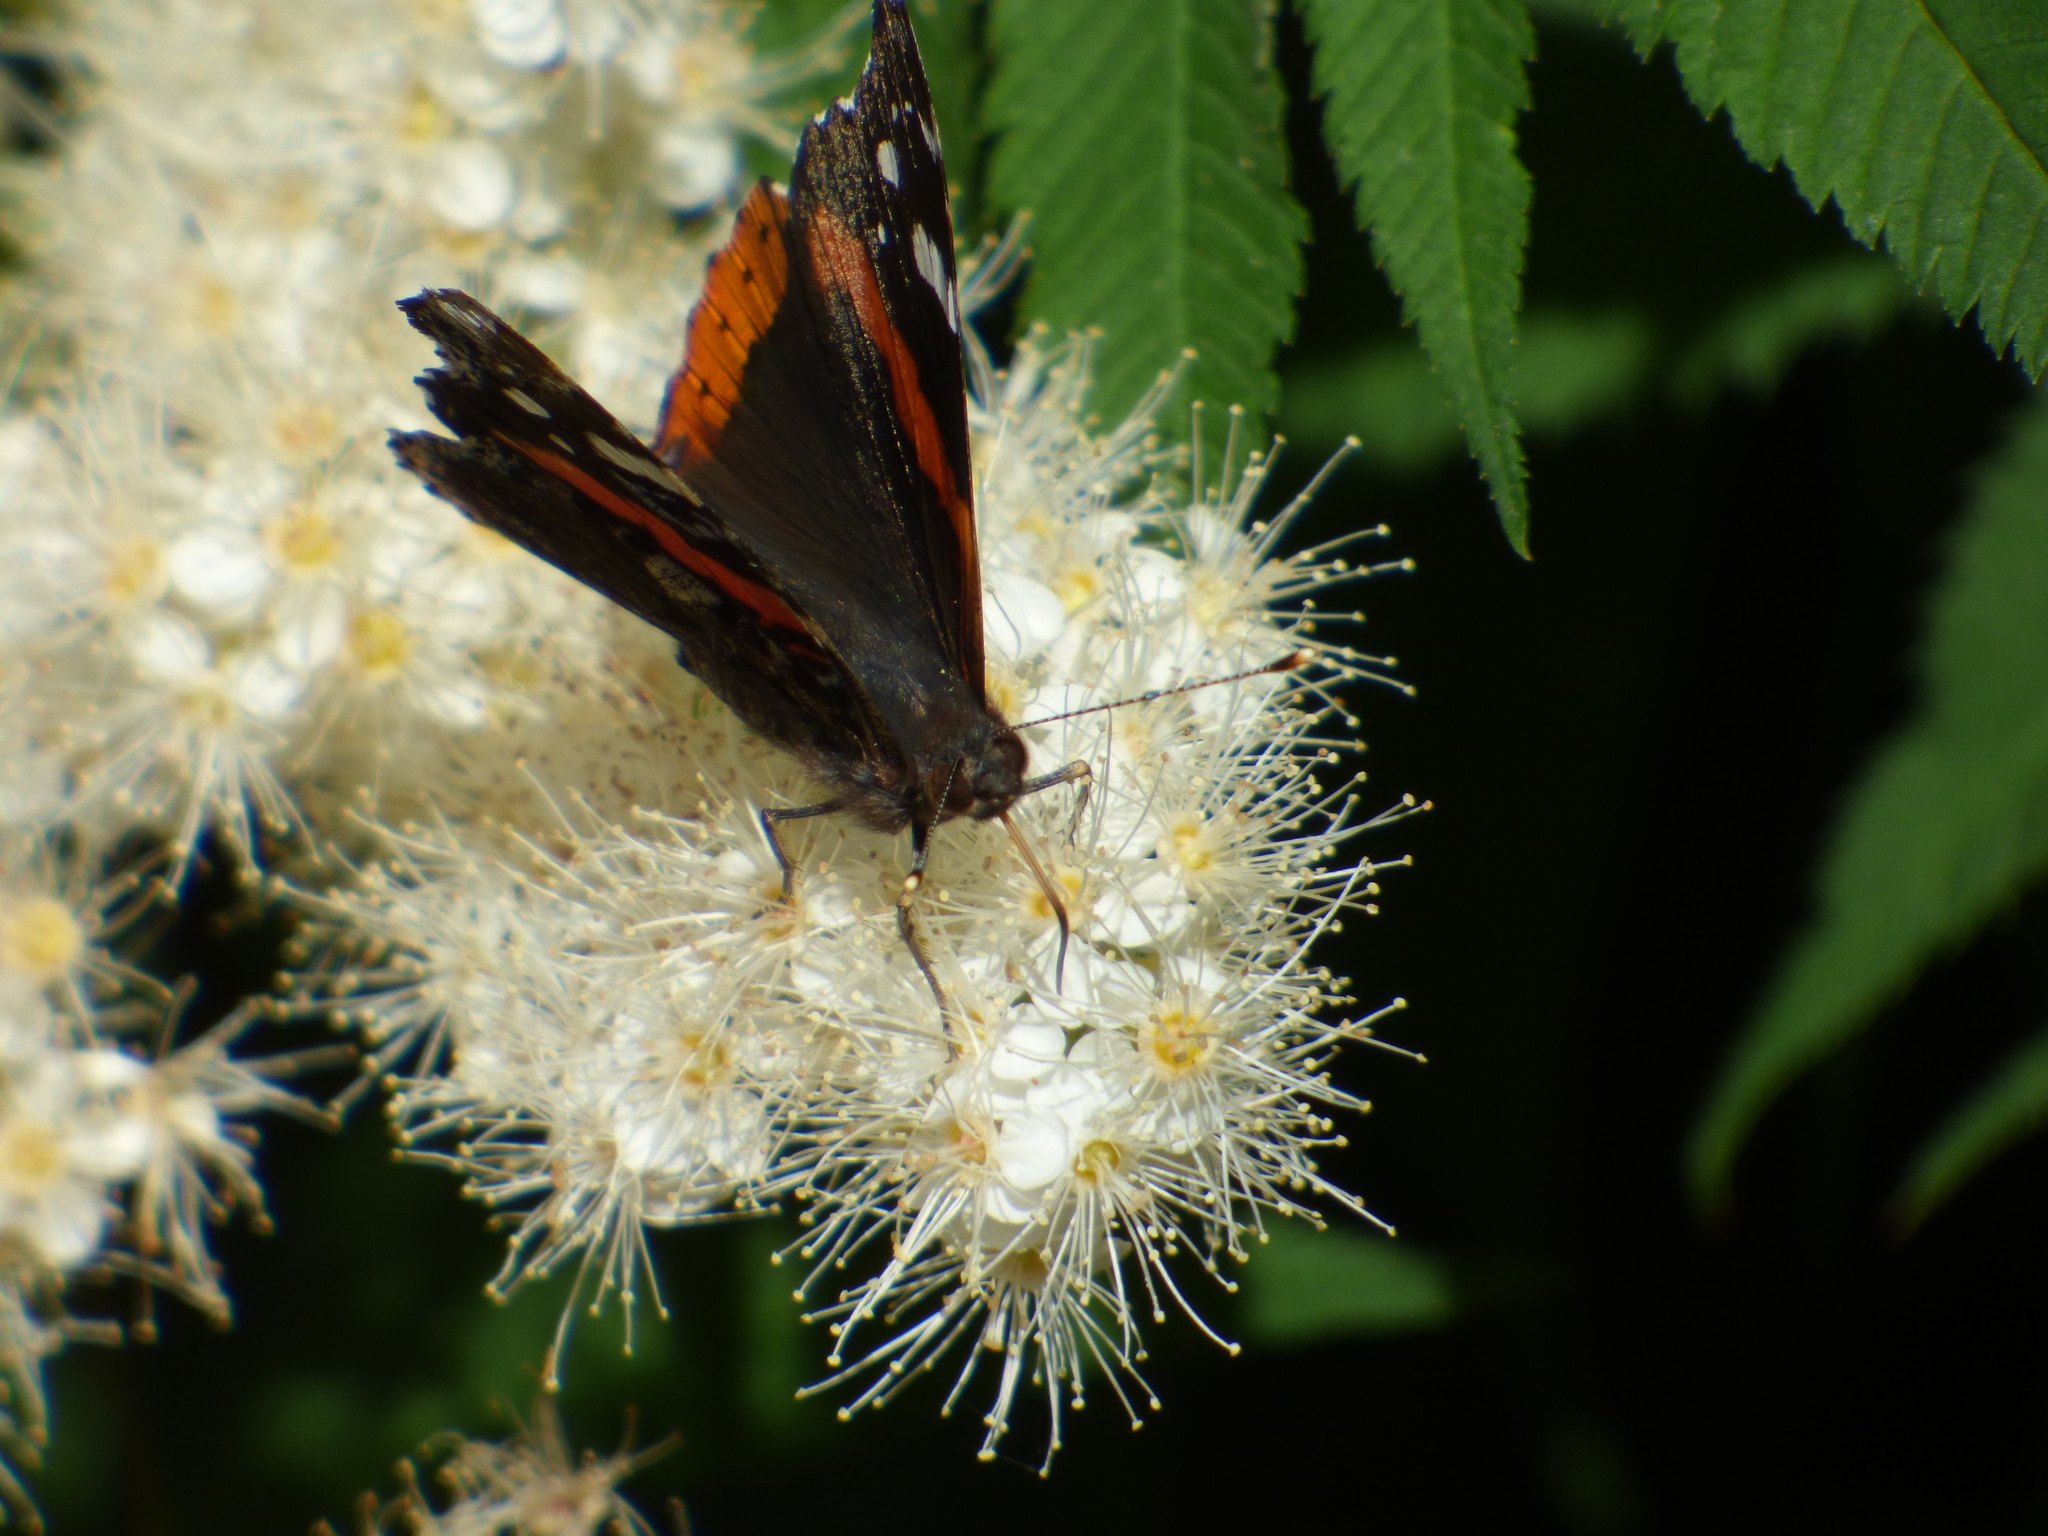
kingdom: Animalia
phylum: Arthropoda
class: Insecta
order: Lepidoptera
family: Nymphalidae
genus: Vanessa
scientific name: Vanessa atalanta
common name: Red admiral
